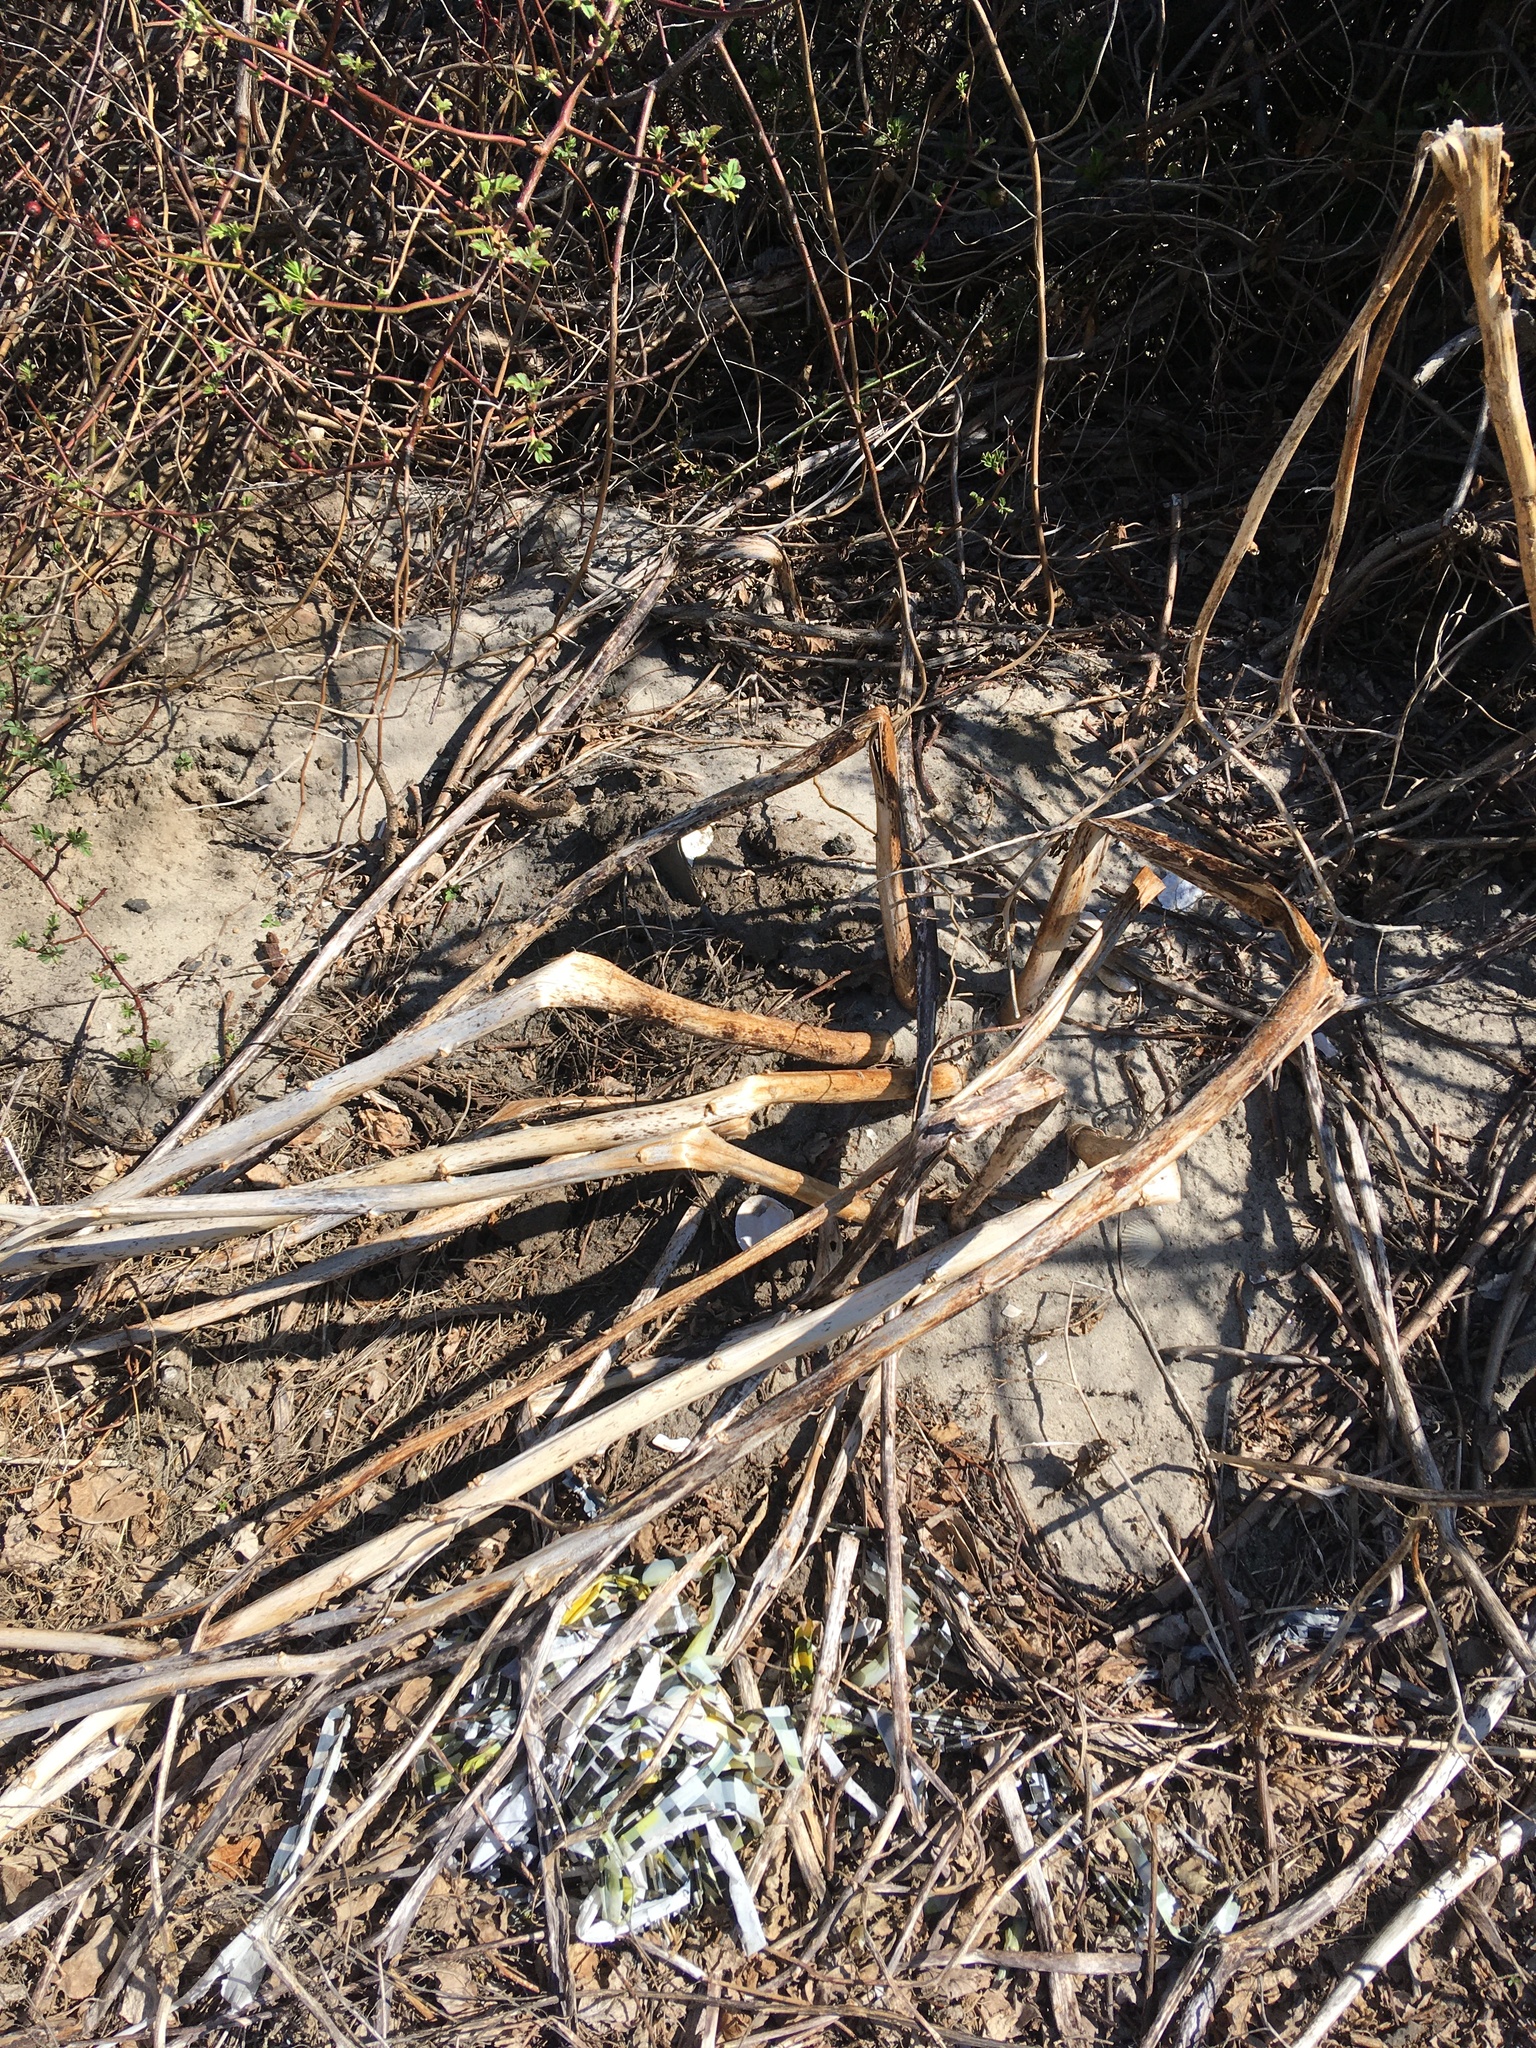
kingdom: Plantae
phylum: Tracheophyta
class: Magnoliopsida
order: Caryophyllales
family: Phytolaccaceae
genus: Phytolacca
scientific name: Phytolacca americana
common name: American pokeweed
